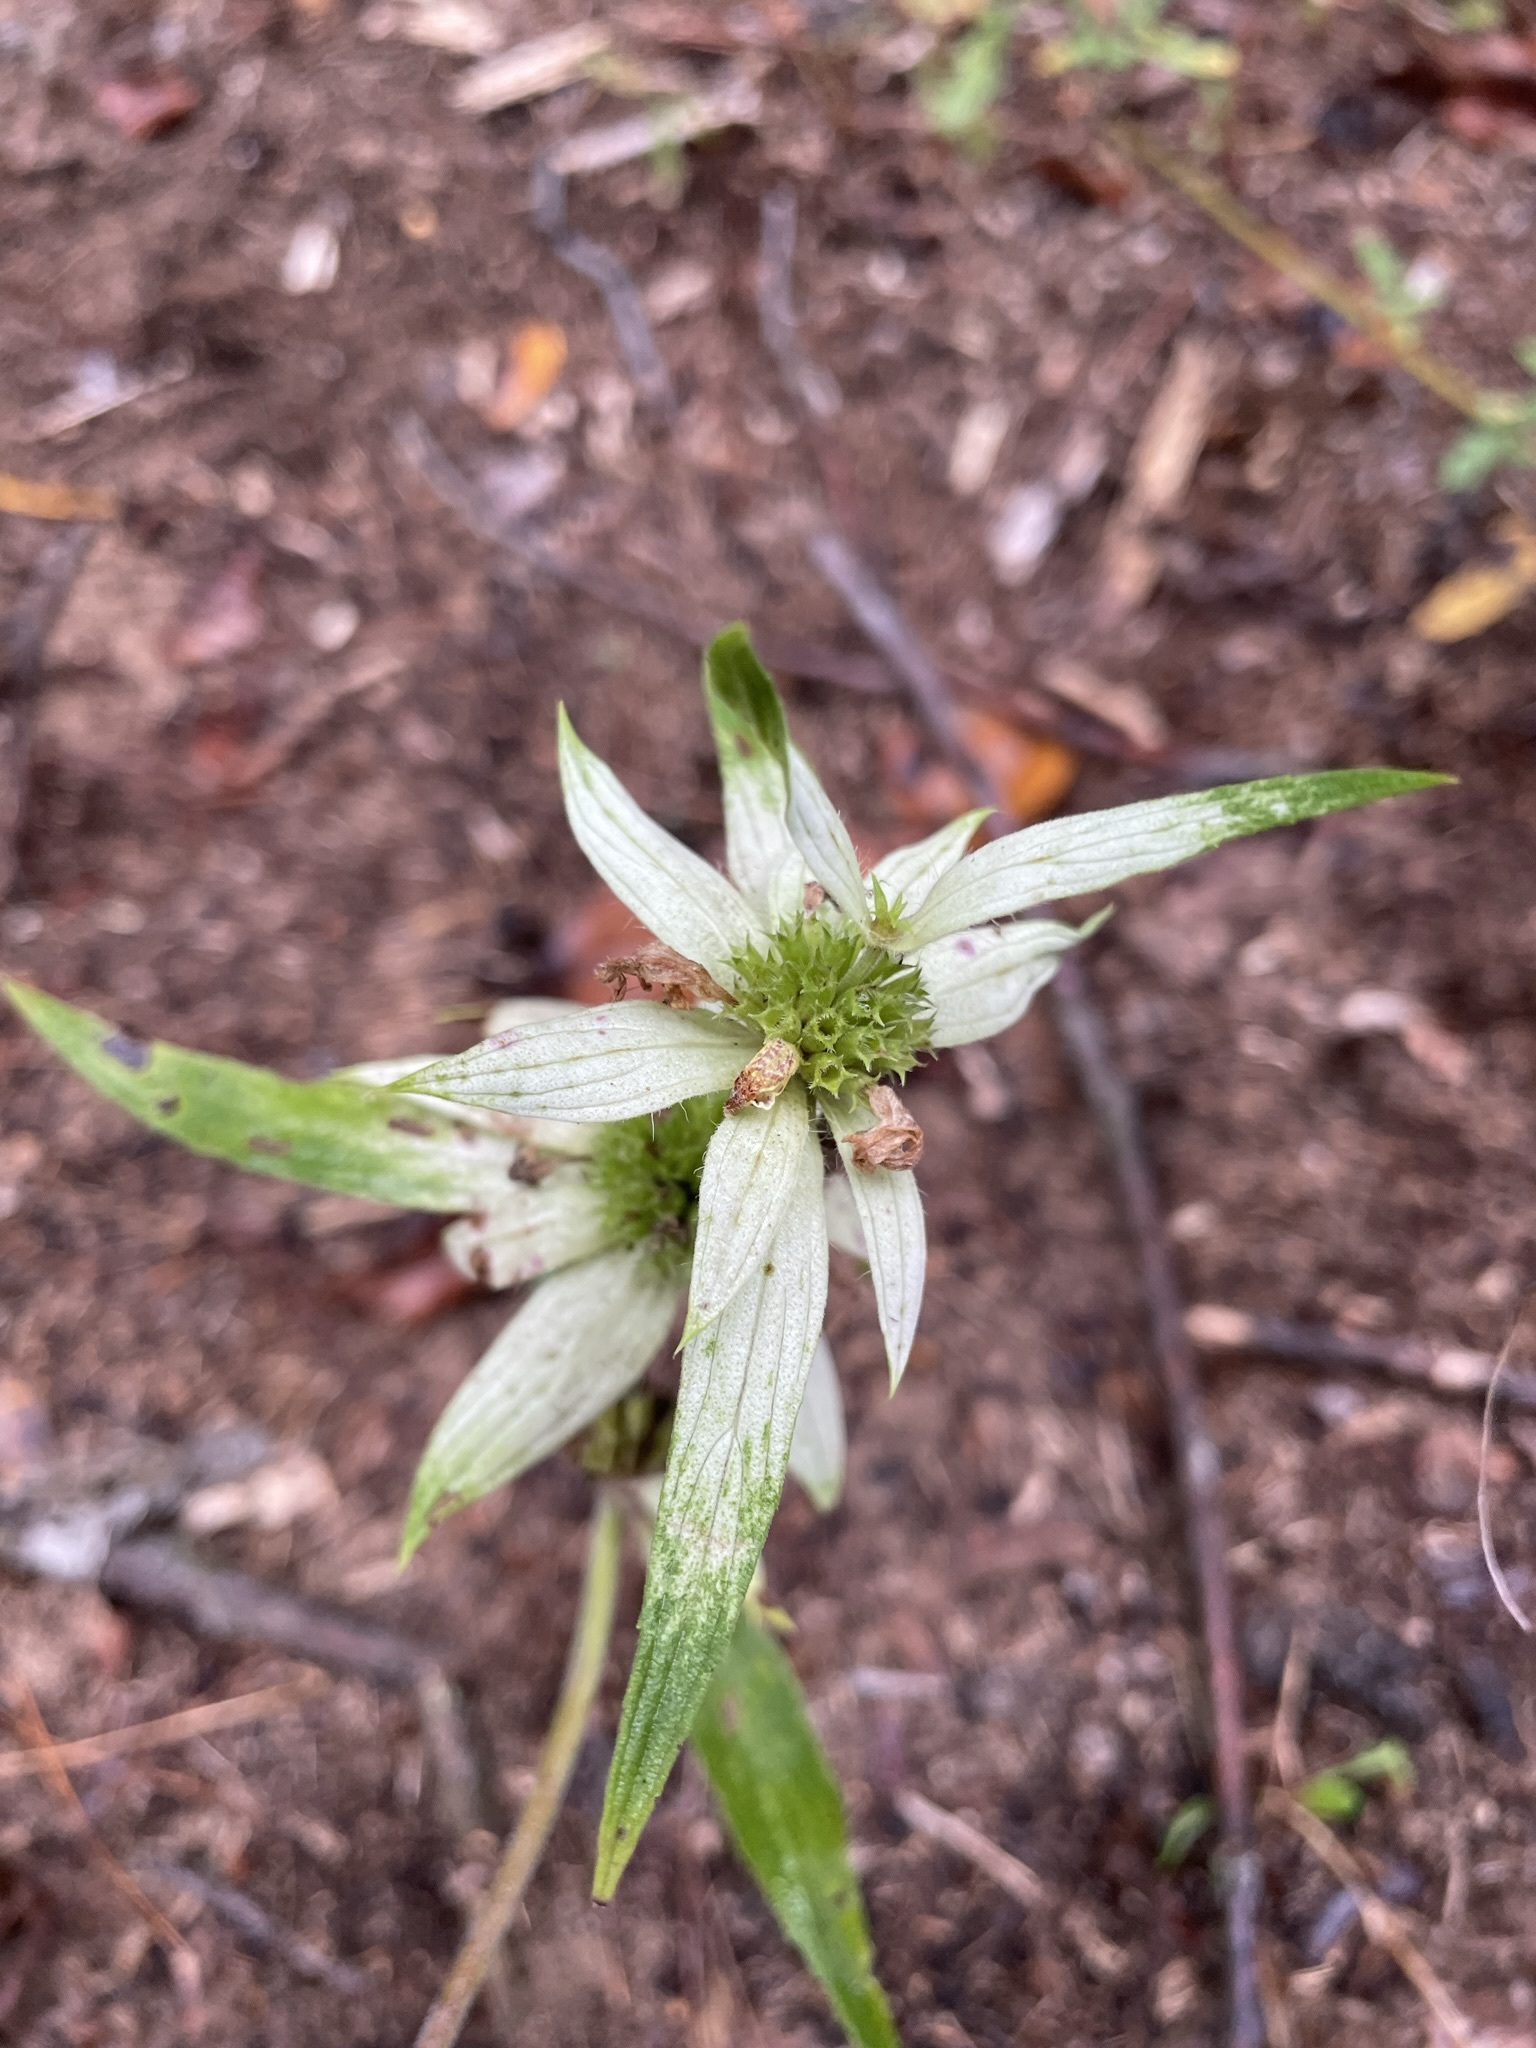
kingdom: Plantae
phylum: Tracheophyta
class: Magnoliopsida
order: Lamiales
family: Lamiaceae
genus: Monarda
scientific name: Monarda punctata
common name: Dotted monarda
